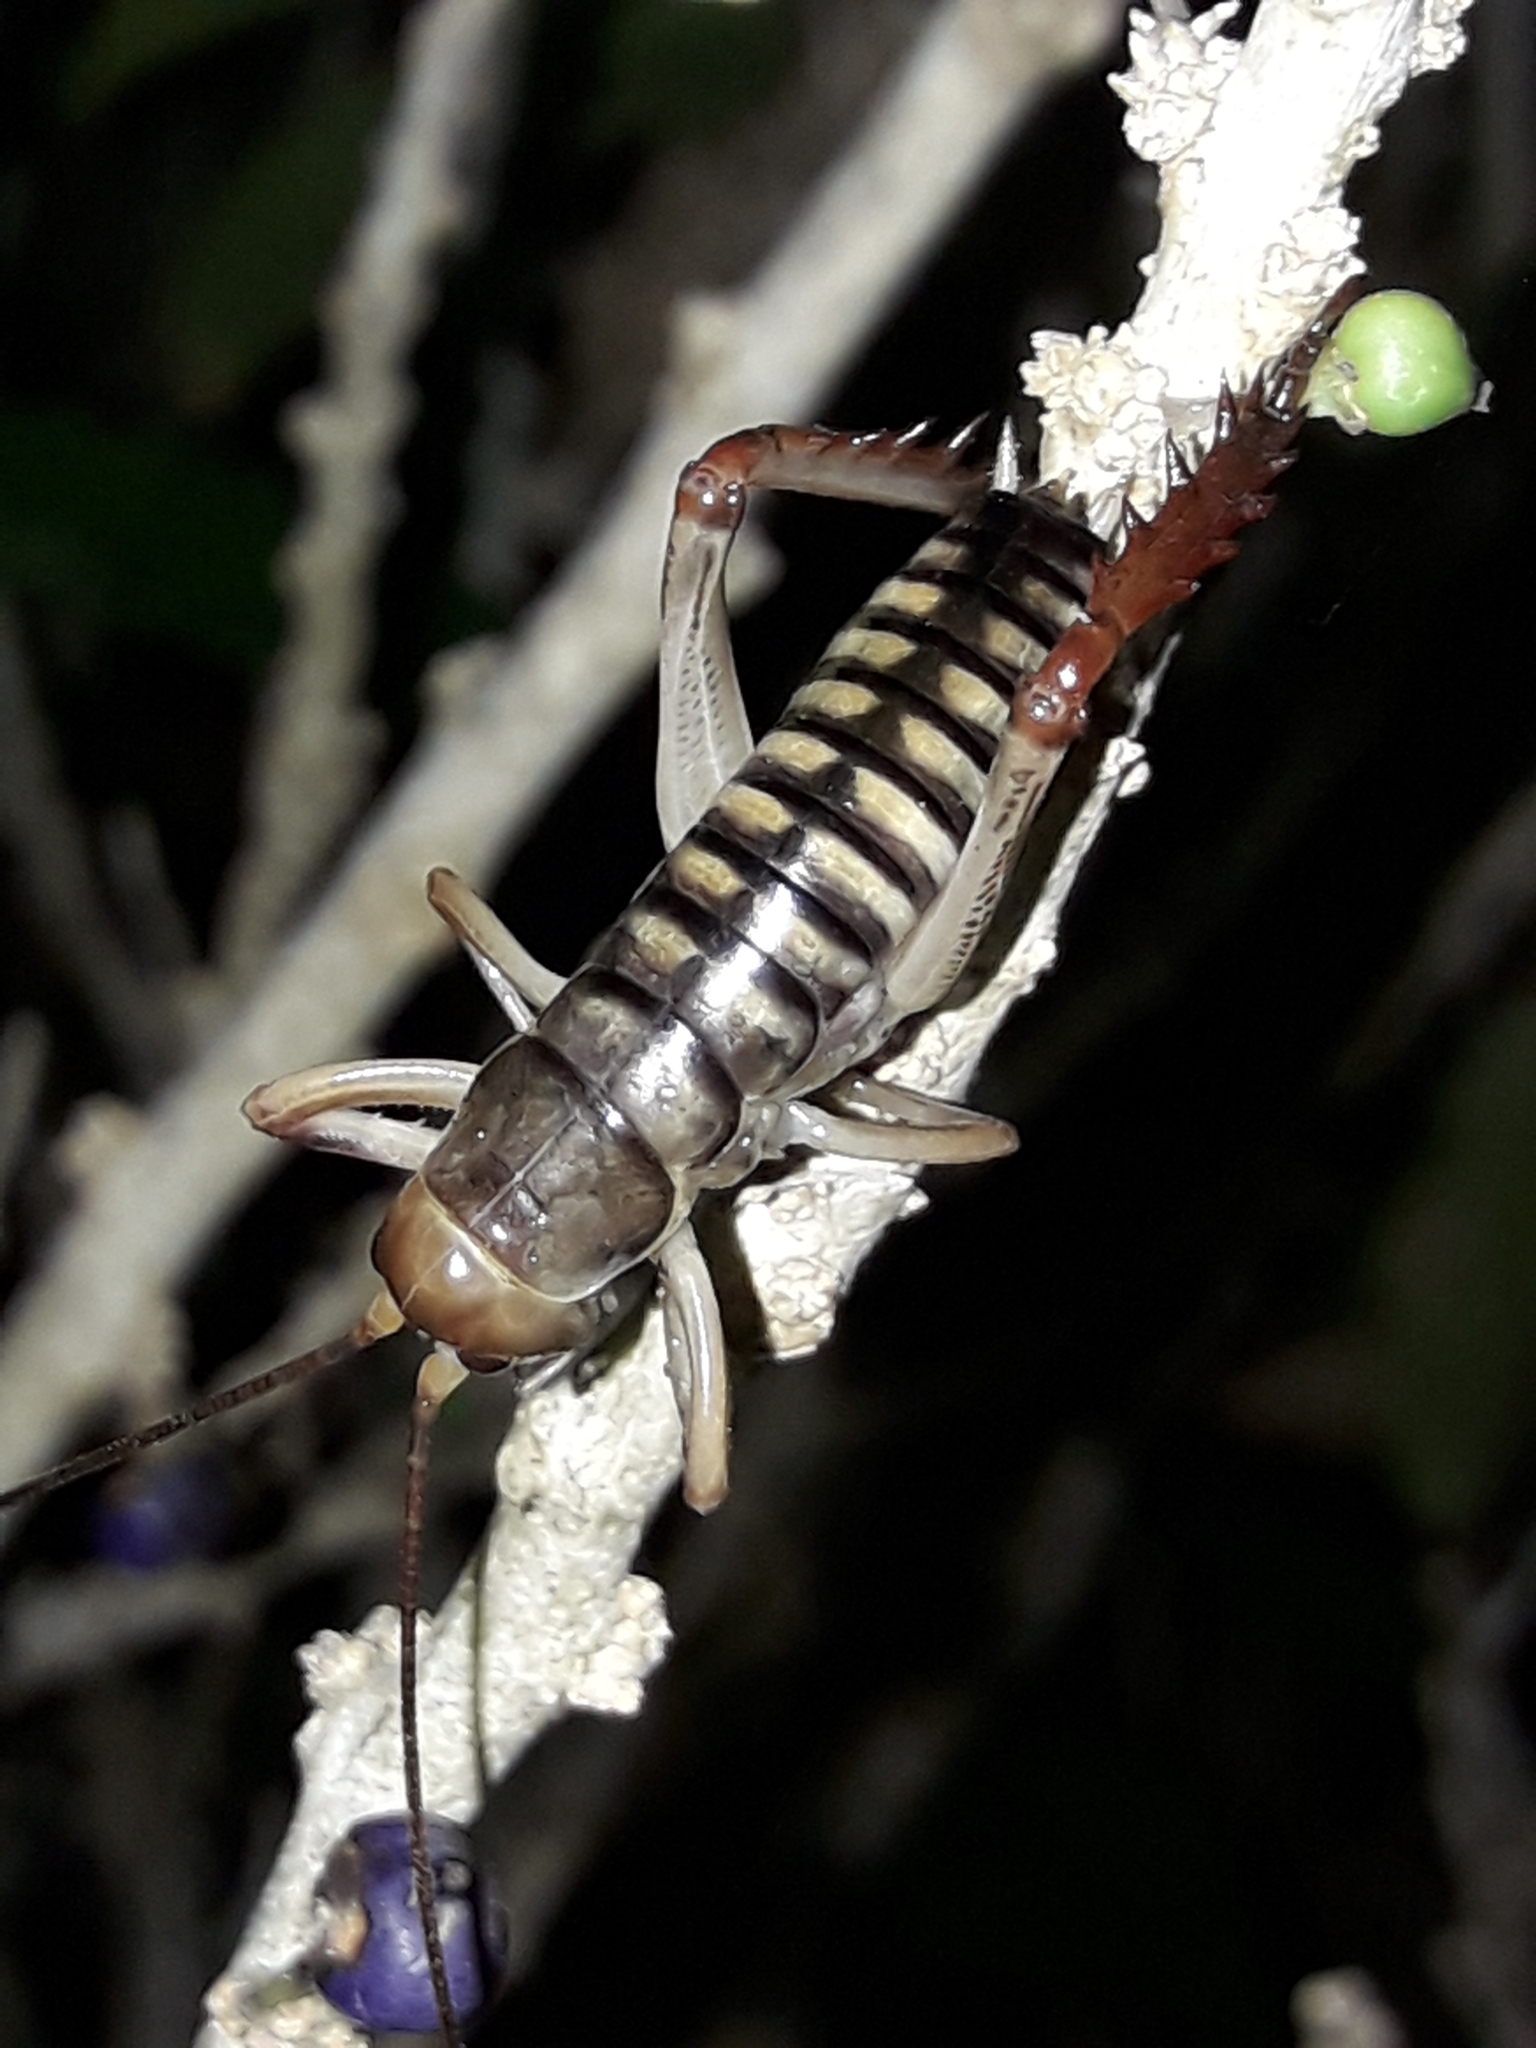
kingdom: Animalia
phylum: Arthropoda
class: Insecta
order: Orthoptera
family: Anostostomatidae
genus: Hemideina
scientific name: Hemideina crassidens
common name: Wellington tree weta
